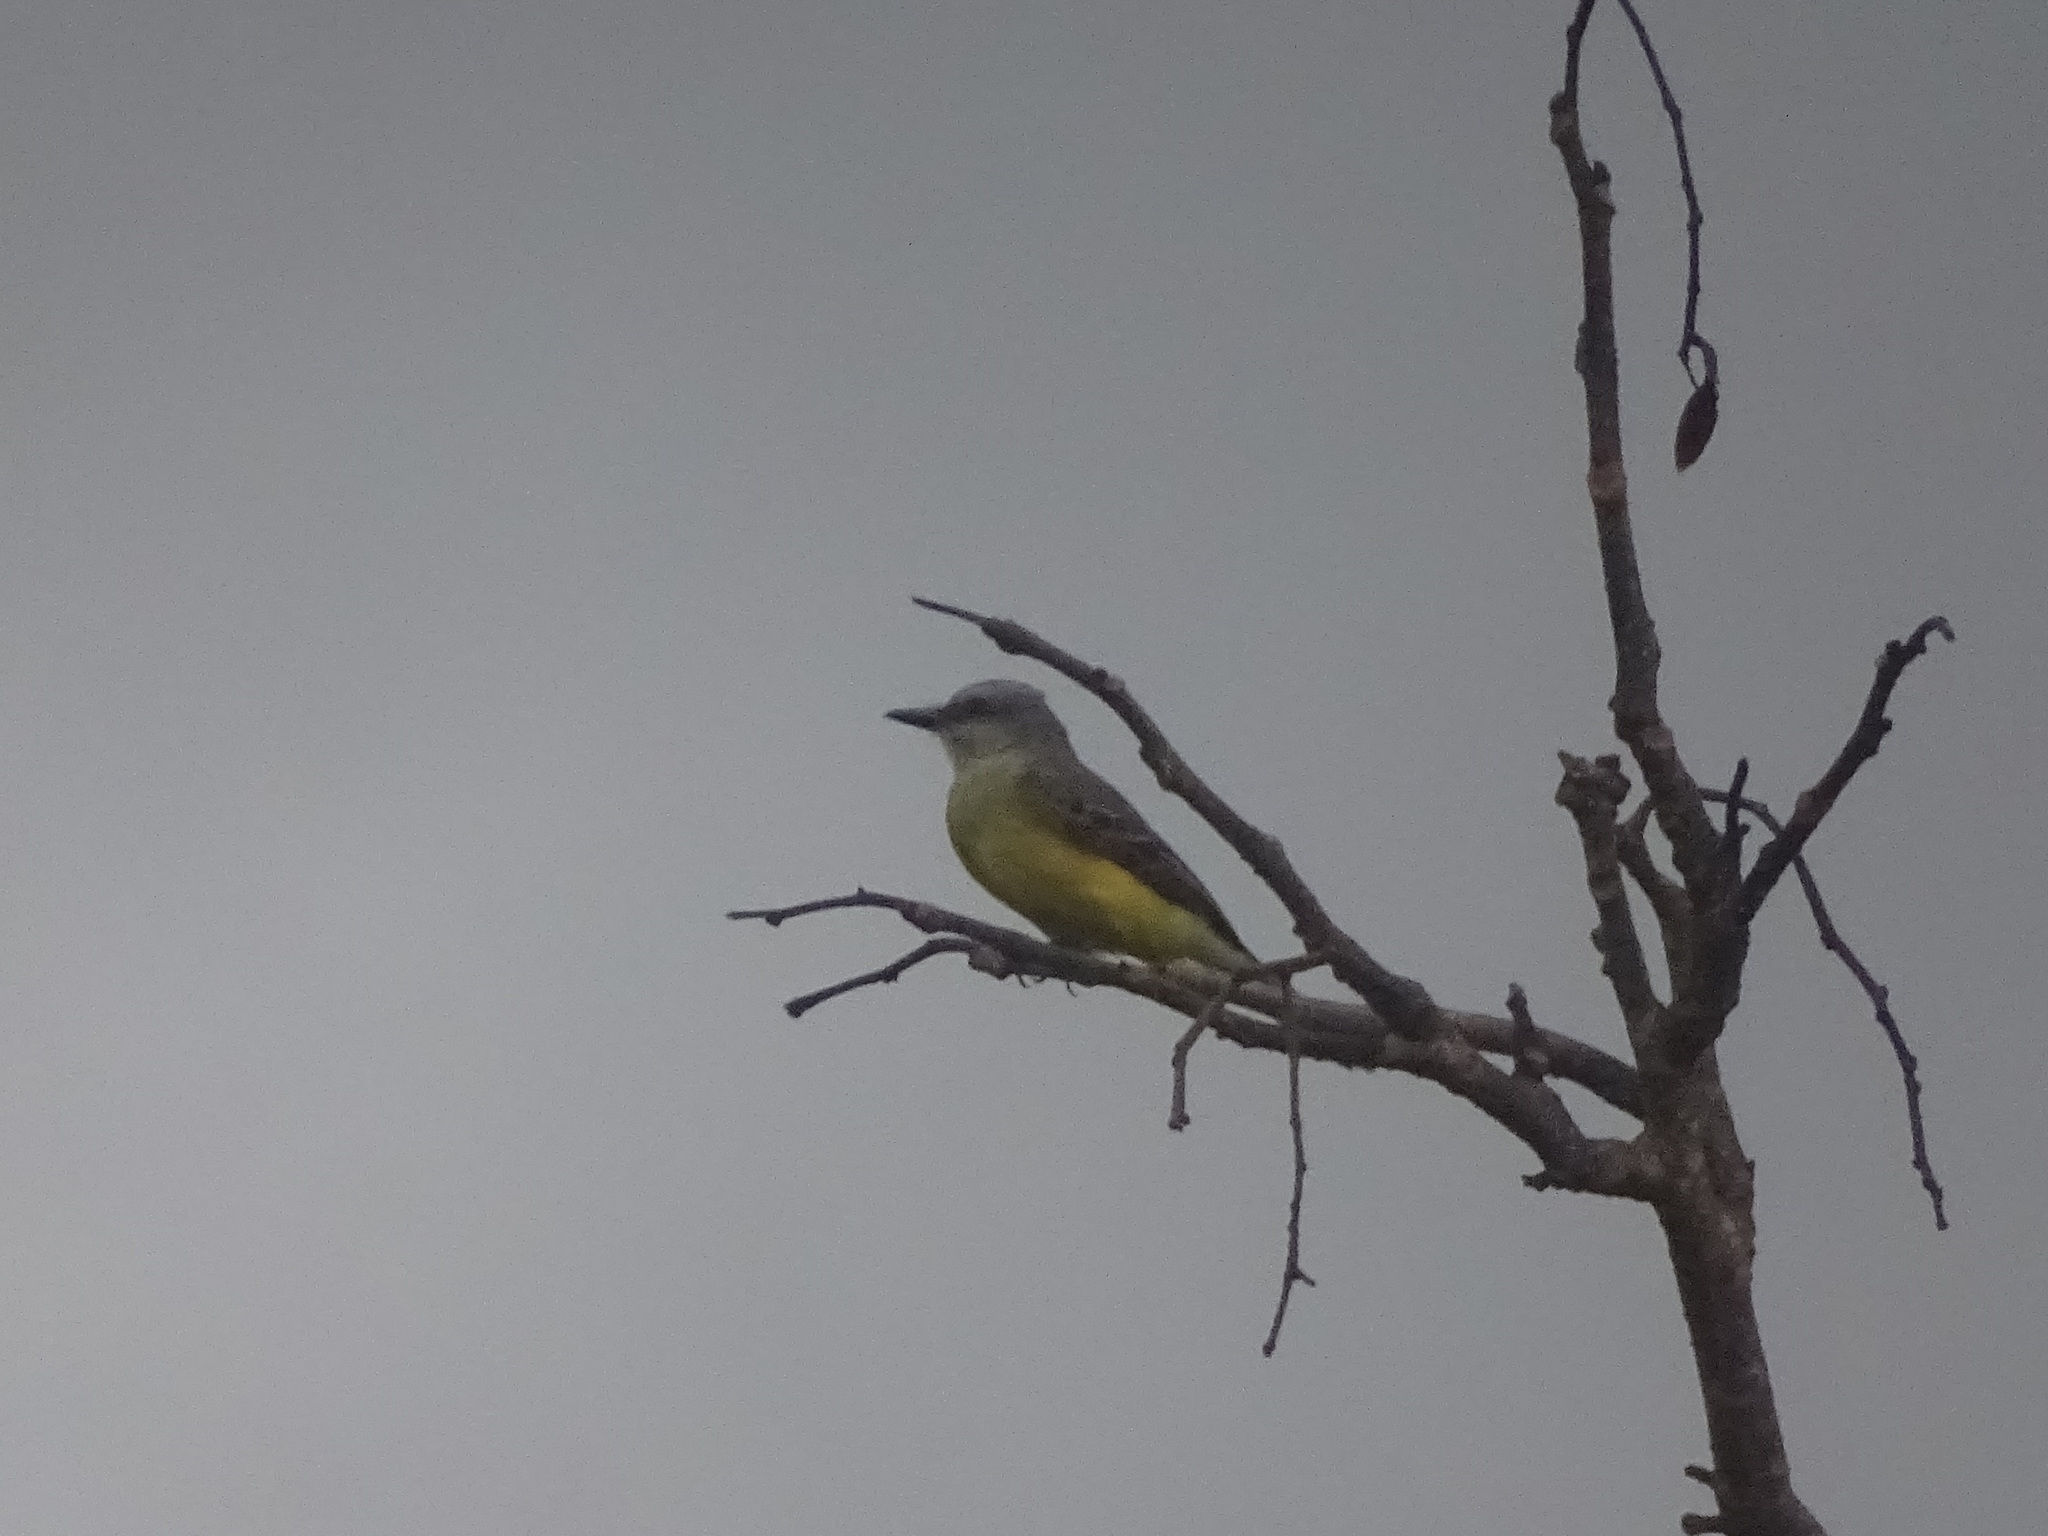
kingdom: Animalia
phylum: Chordata
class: Aves
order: Passeriformes
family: Tyrannidae
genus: Tyrannus
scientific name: Tyrannus melancholicus
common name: Tropical kingbird
